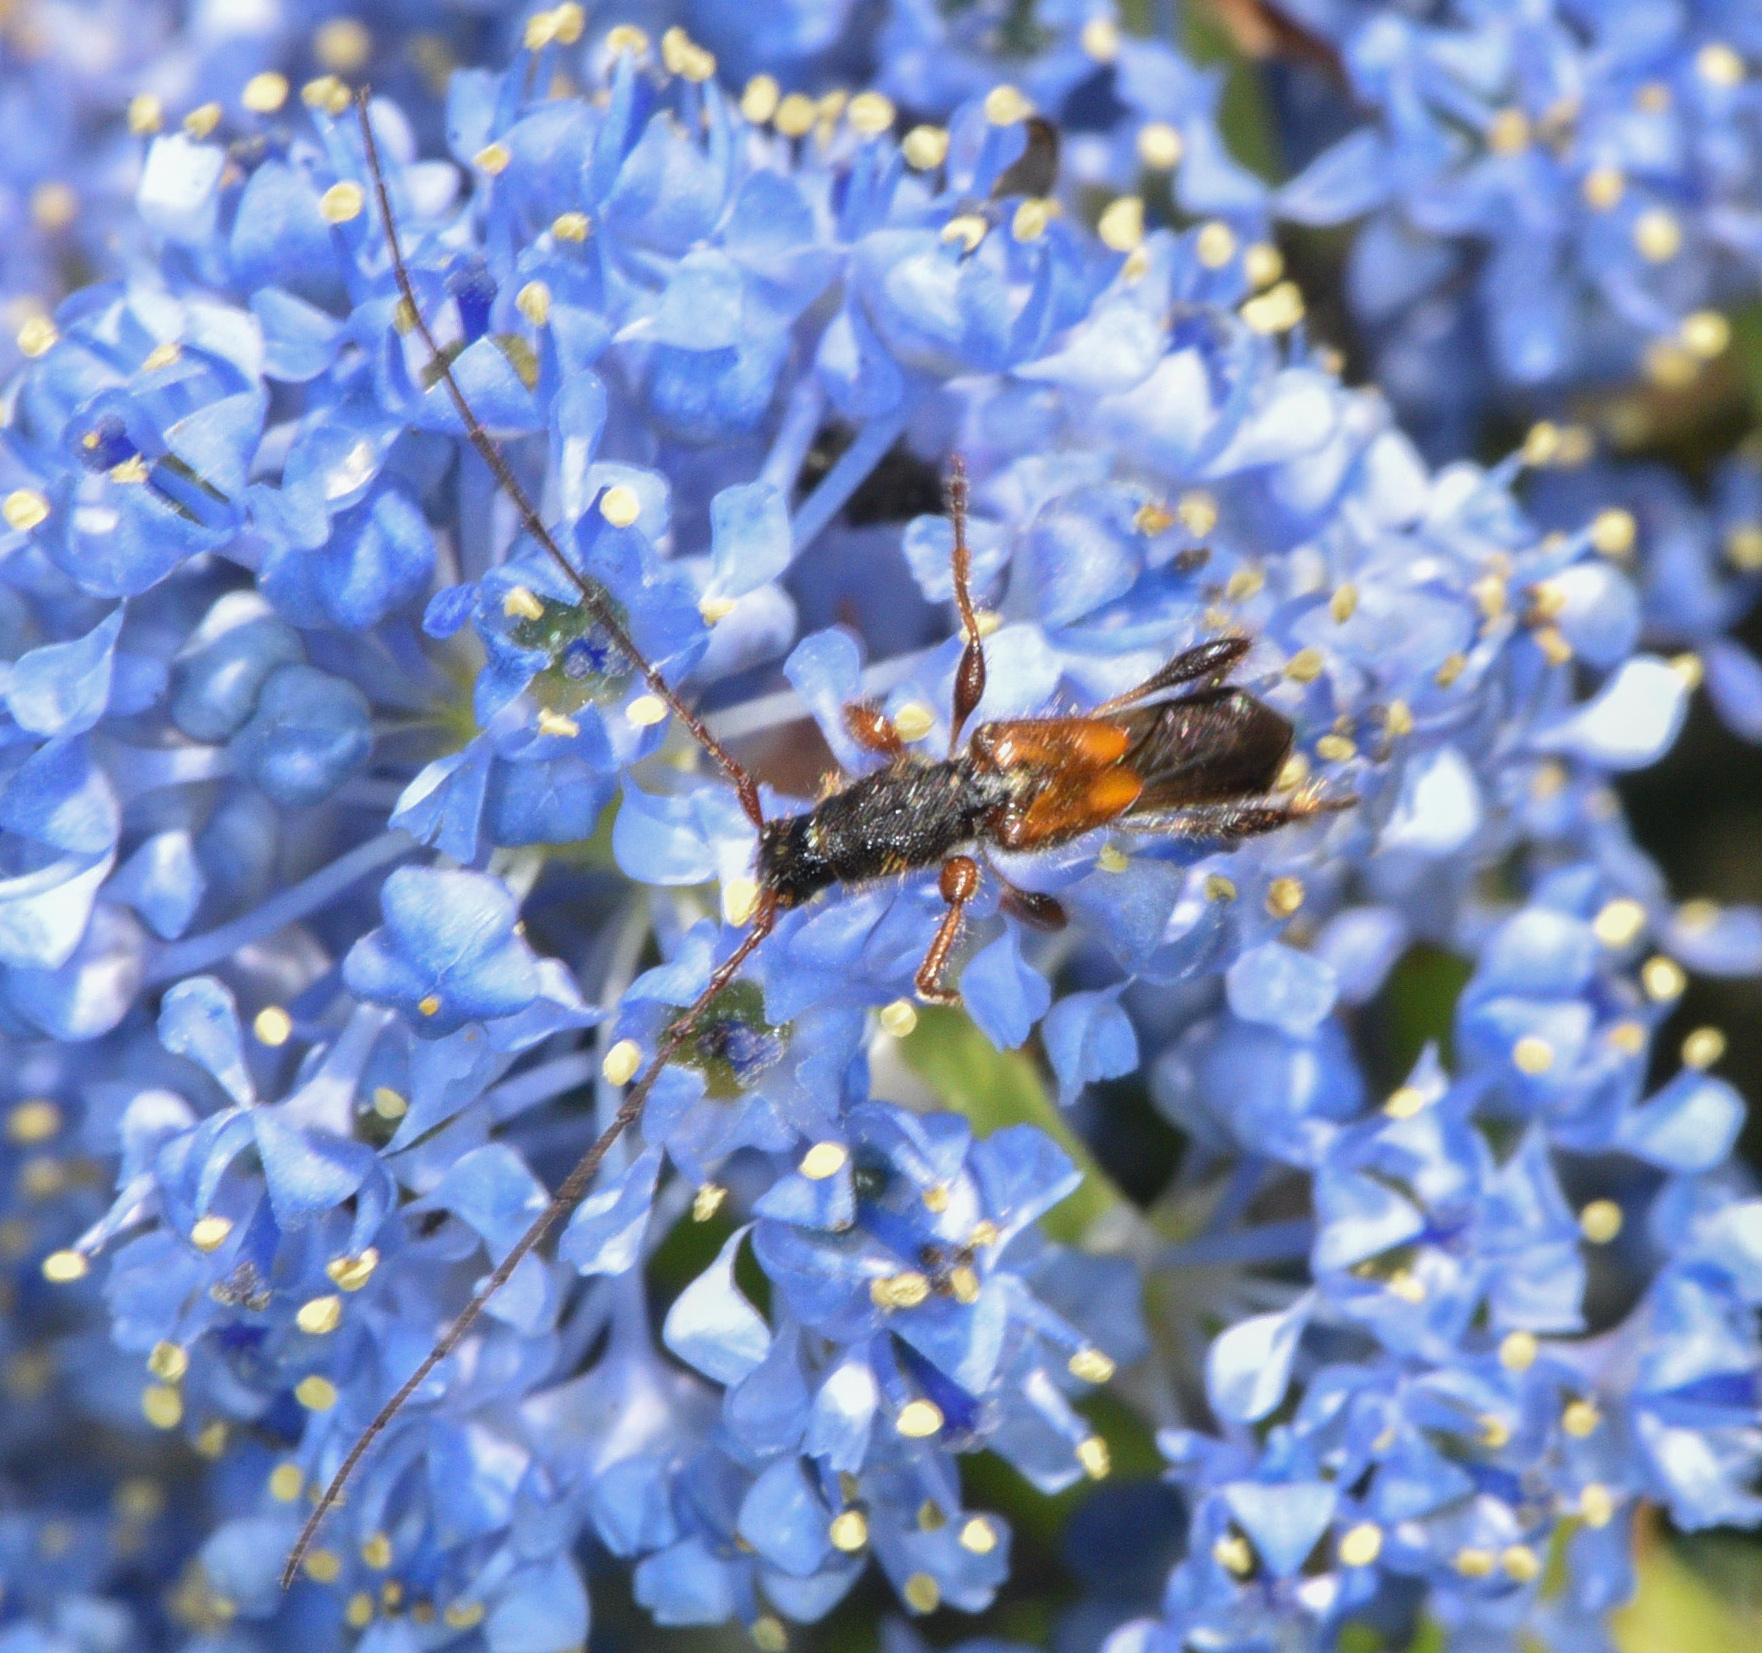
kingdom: Animalia
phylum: Arthropoda
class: Insecta
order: Coleoptera
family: Cerambycidae
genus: Molorchus
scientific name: Molorchus longicollis
